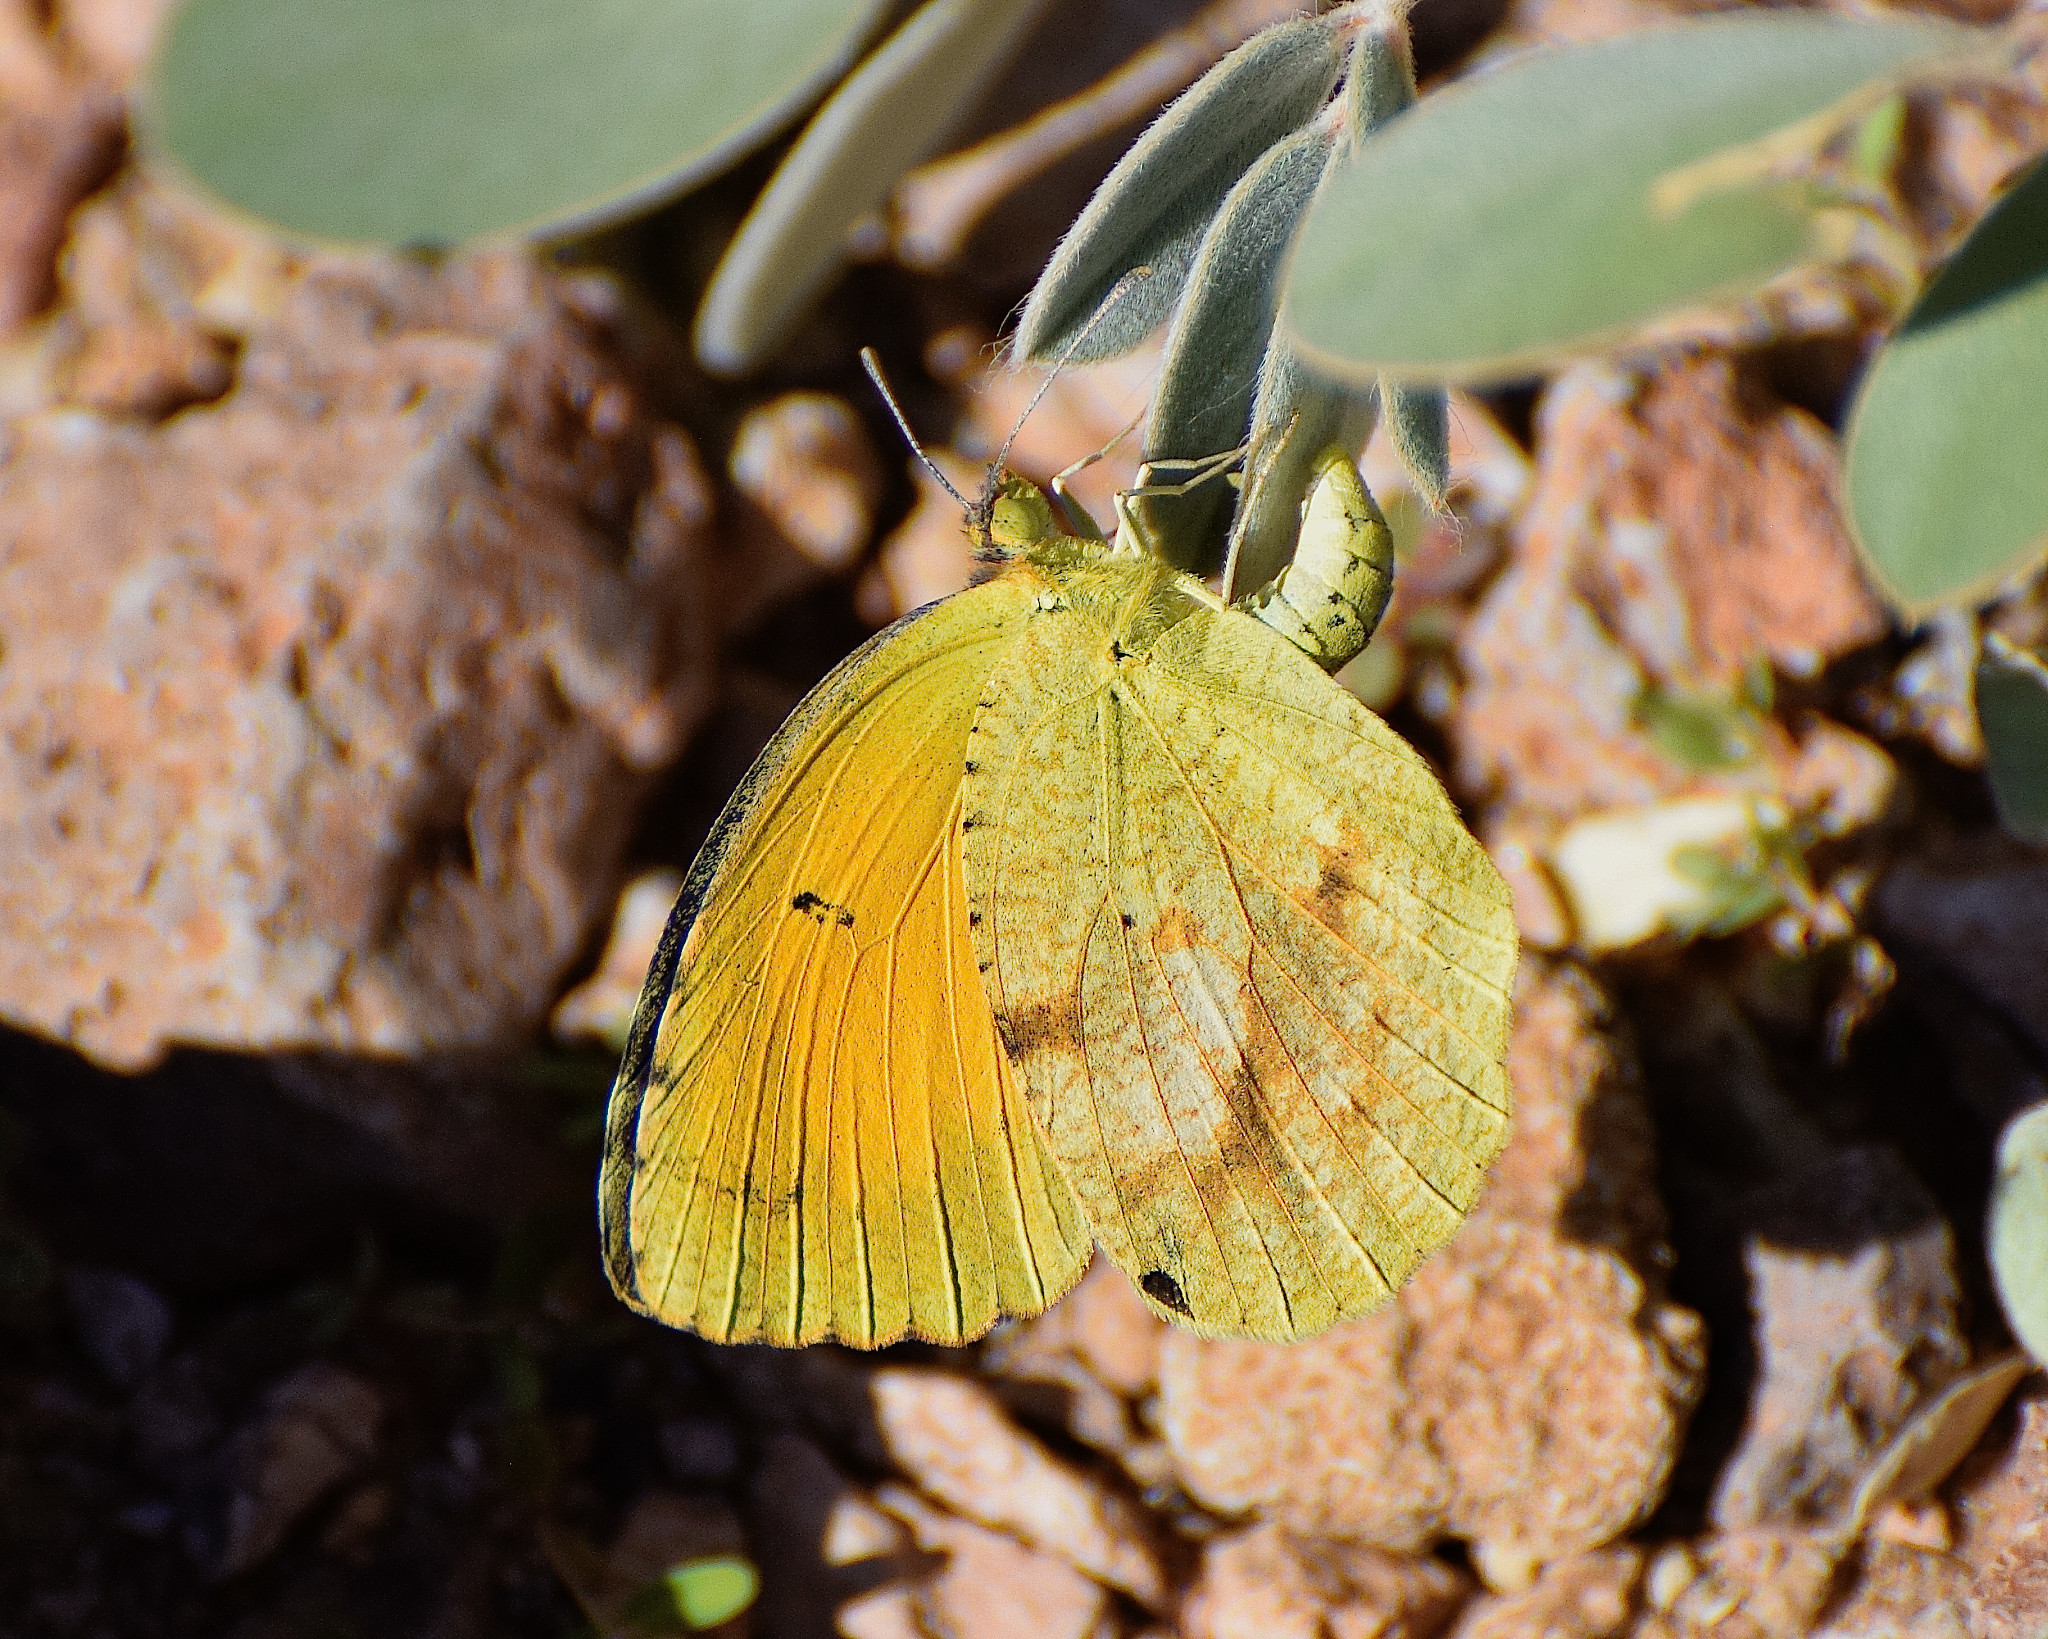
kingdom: Animalia
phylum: Arthropoda
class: Insecta
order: Lepidoptera
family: Pieridae
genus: Abaeis
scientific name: Abaeis nicippe
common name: Sleepy orange
